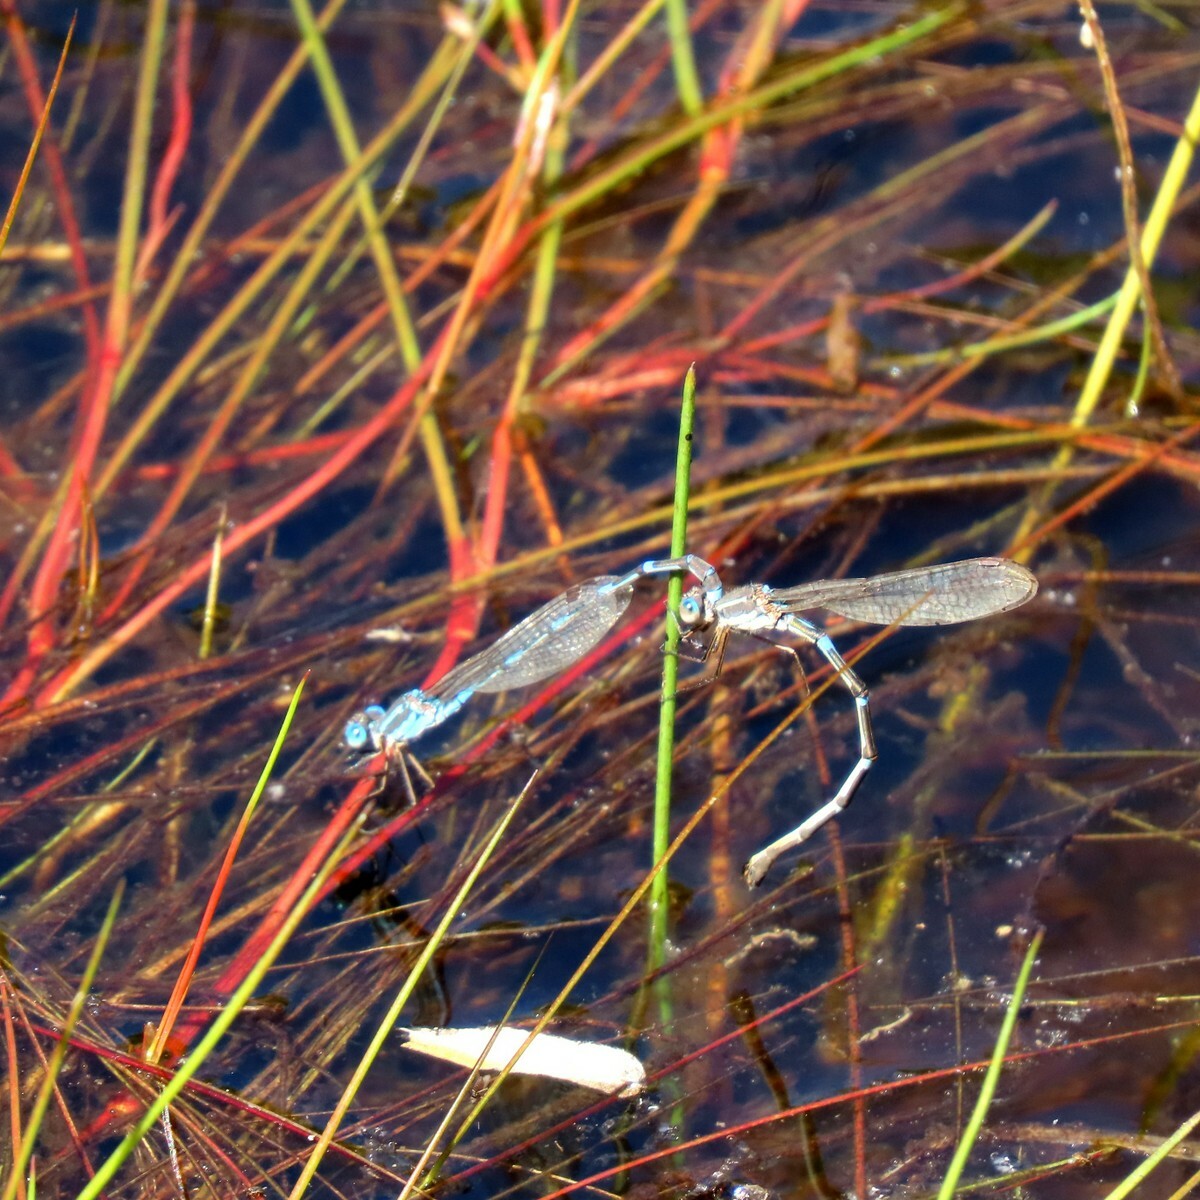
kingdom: Animalia
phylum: Arthropoda
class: Insecta
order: Odonata
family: Lestidae
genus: Austrolestes
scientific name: Austrolestes leda
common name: Wandering ringtail
